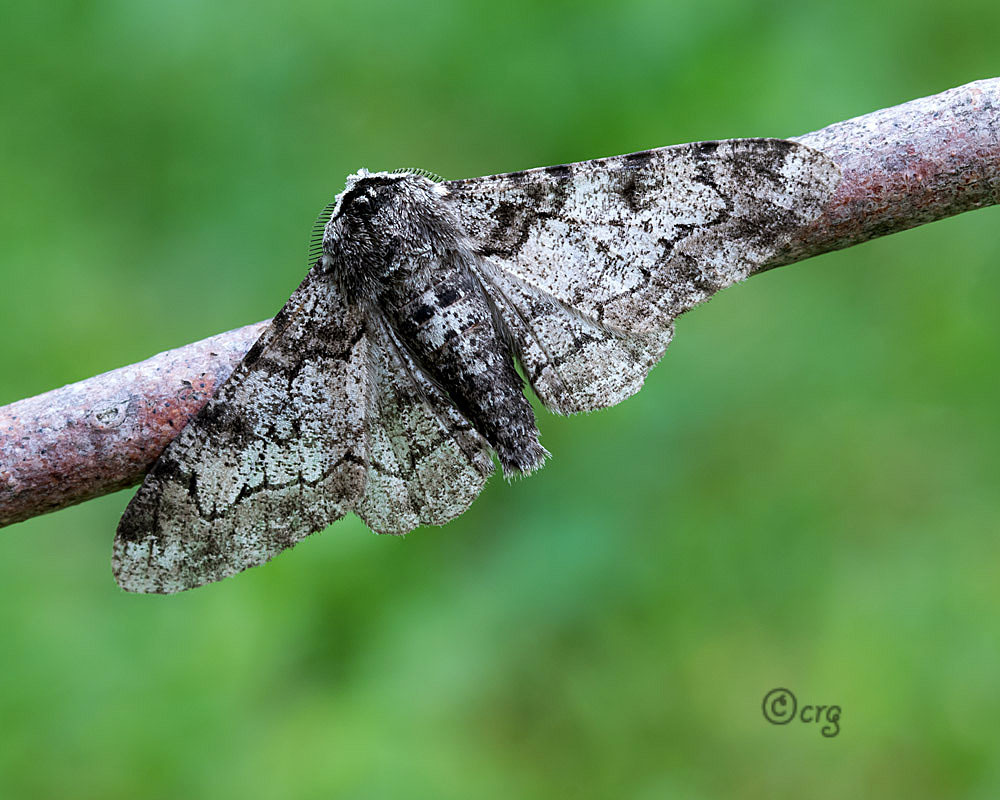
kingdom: Animalia
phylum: Arthropoda
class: Insecta
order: Lepidoptera
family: Geometridae
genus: Biston
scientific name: Biston betularia
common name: Peppered moth
